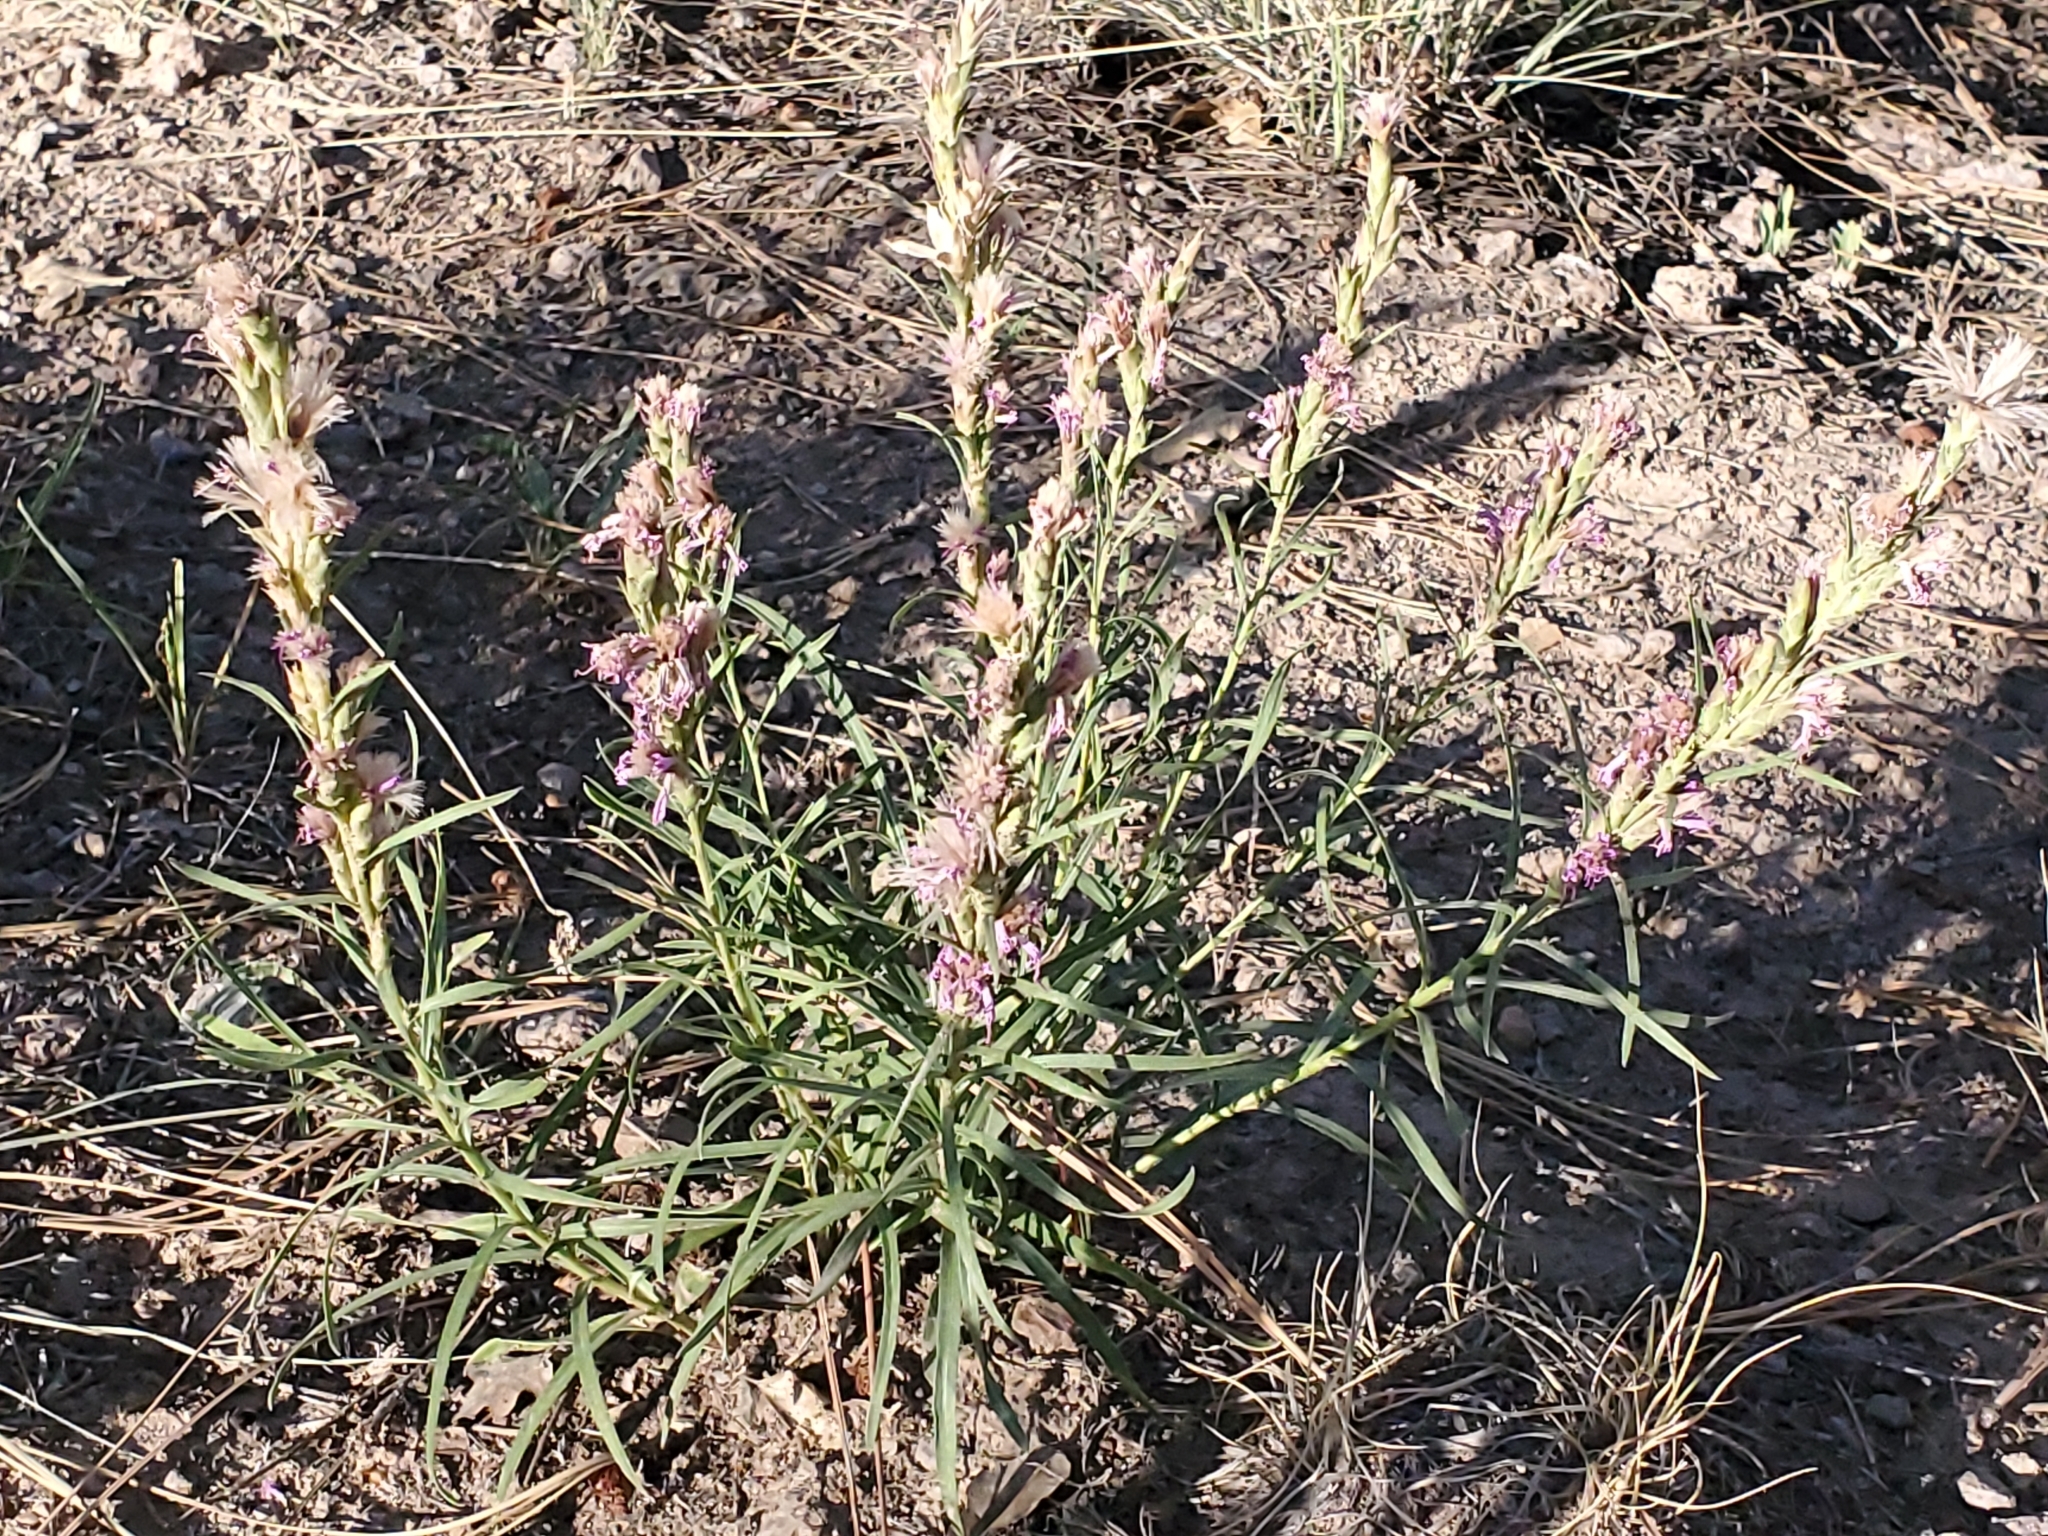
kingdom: Plantae
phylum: Tracheophyta
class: Magnoliopsida
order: Asterales
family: Asteraceae
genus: Liatris
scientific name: Liatris punctata
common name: Dotted gayfeather
